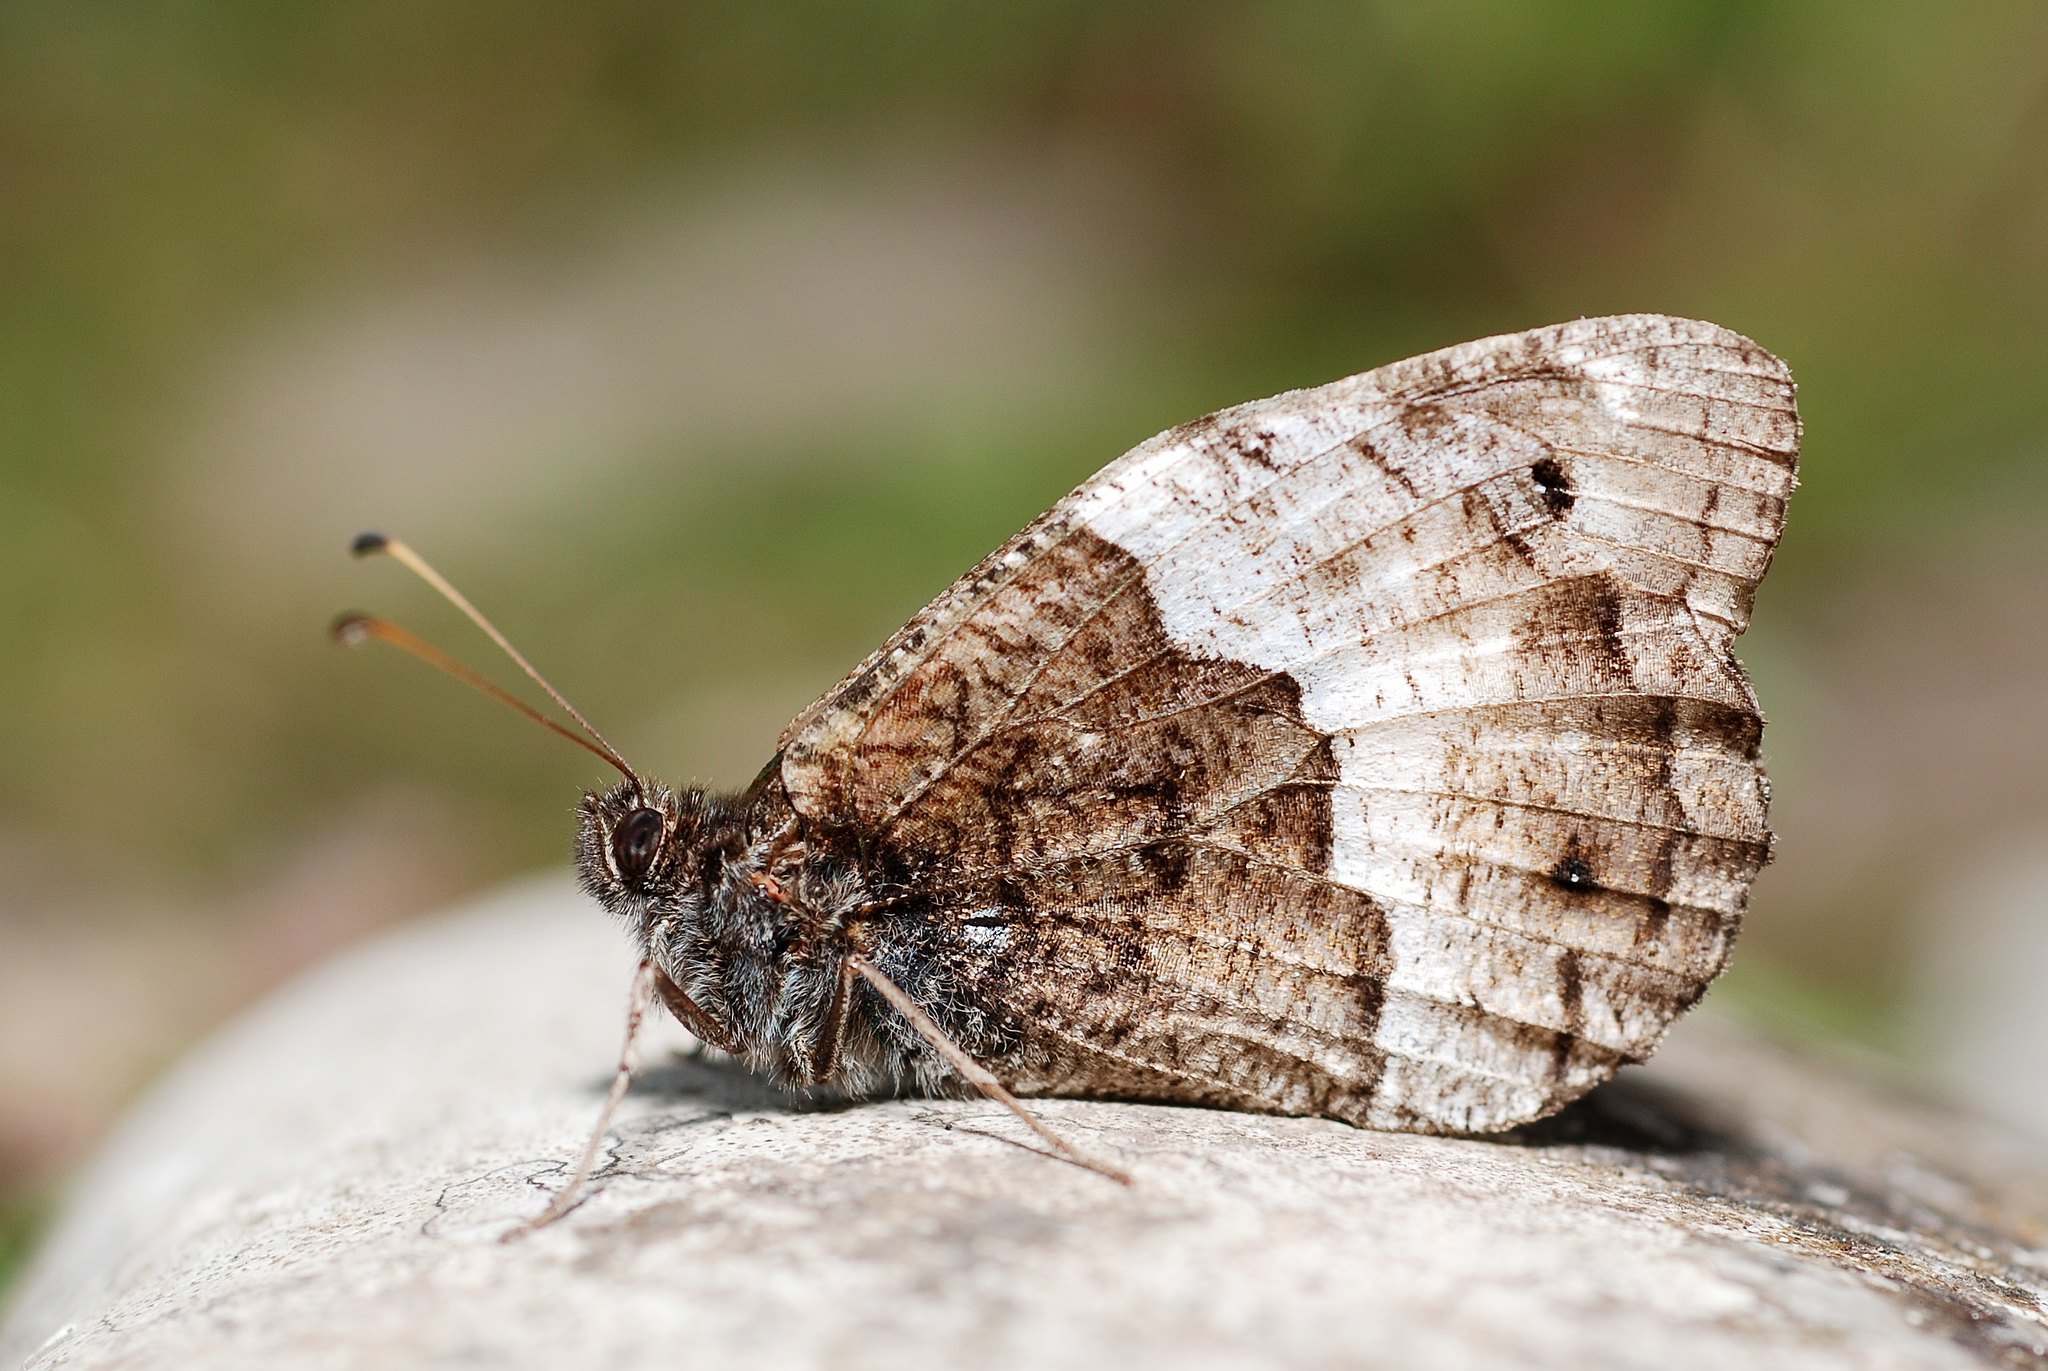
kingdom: Animalia
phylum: Arthropoda
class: Insecta
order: Lepidoptera
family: Nymphalidae
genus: Hipparchia
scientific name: Hipparchia hermione
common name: Rock grayling
